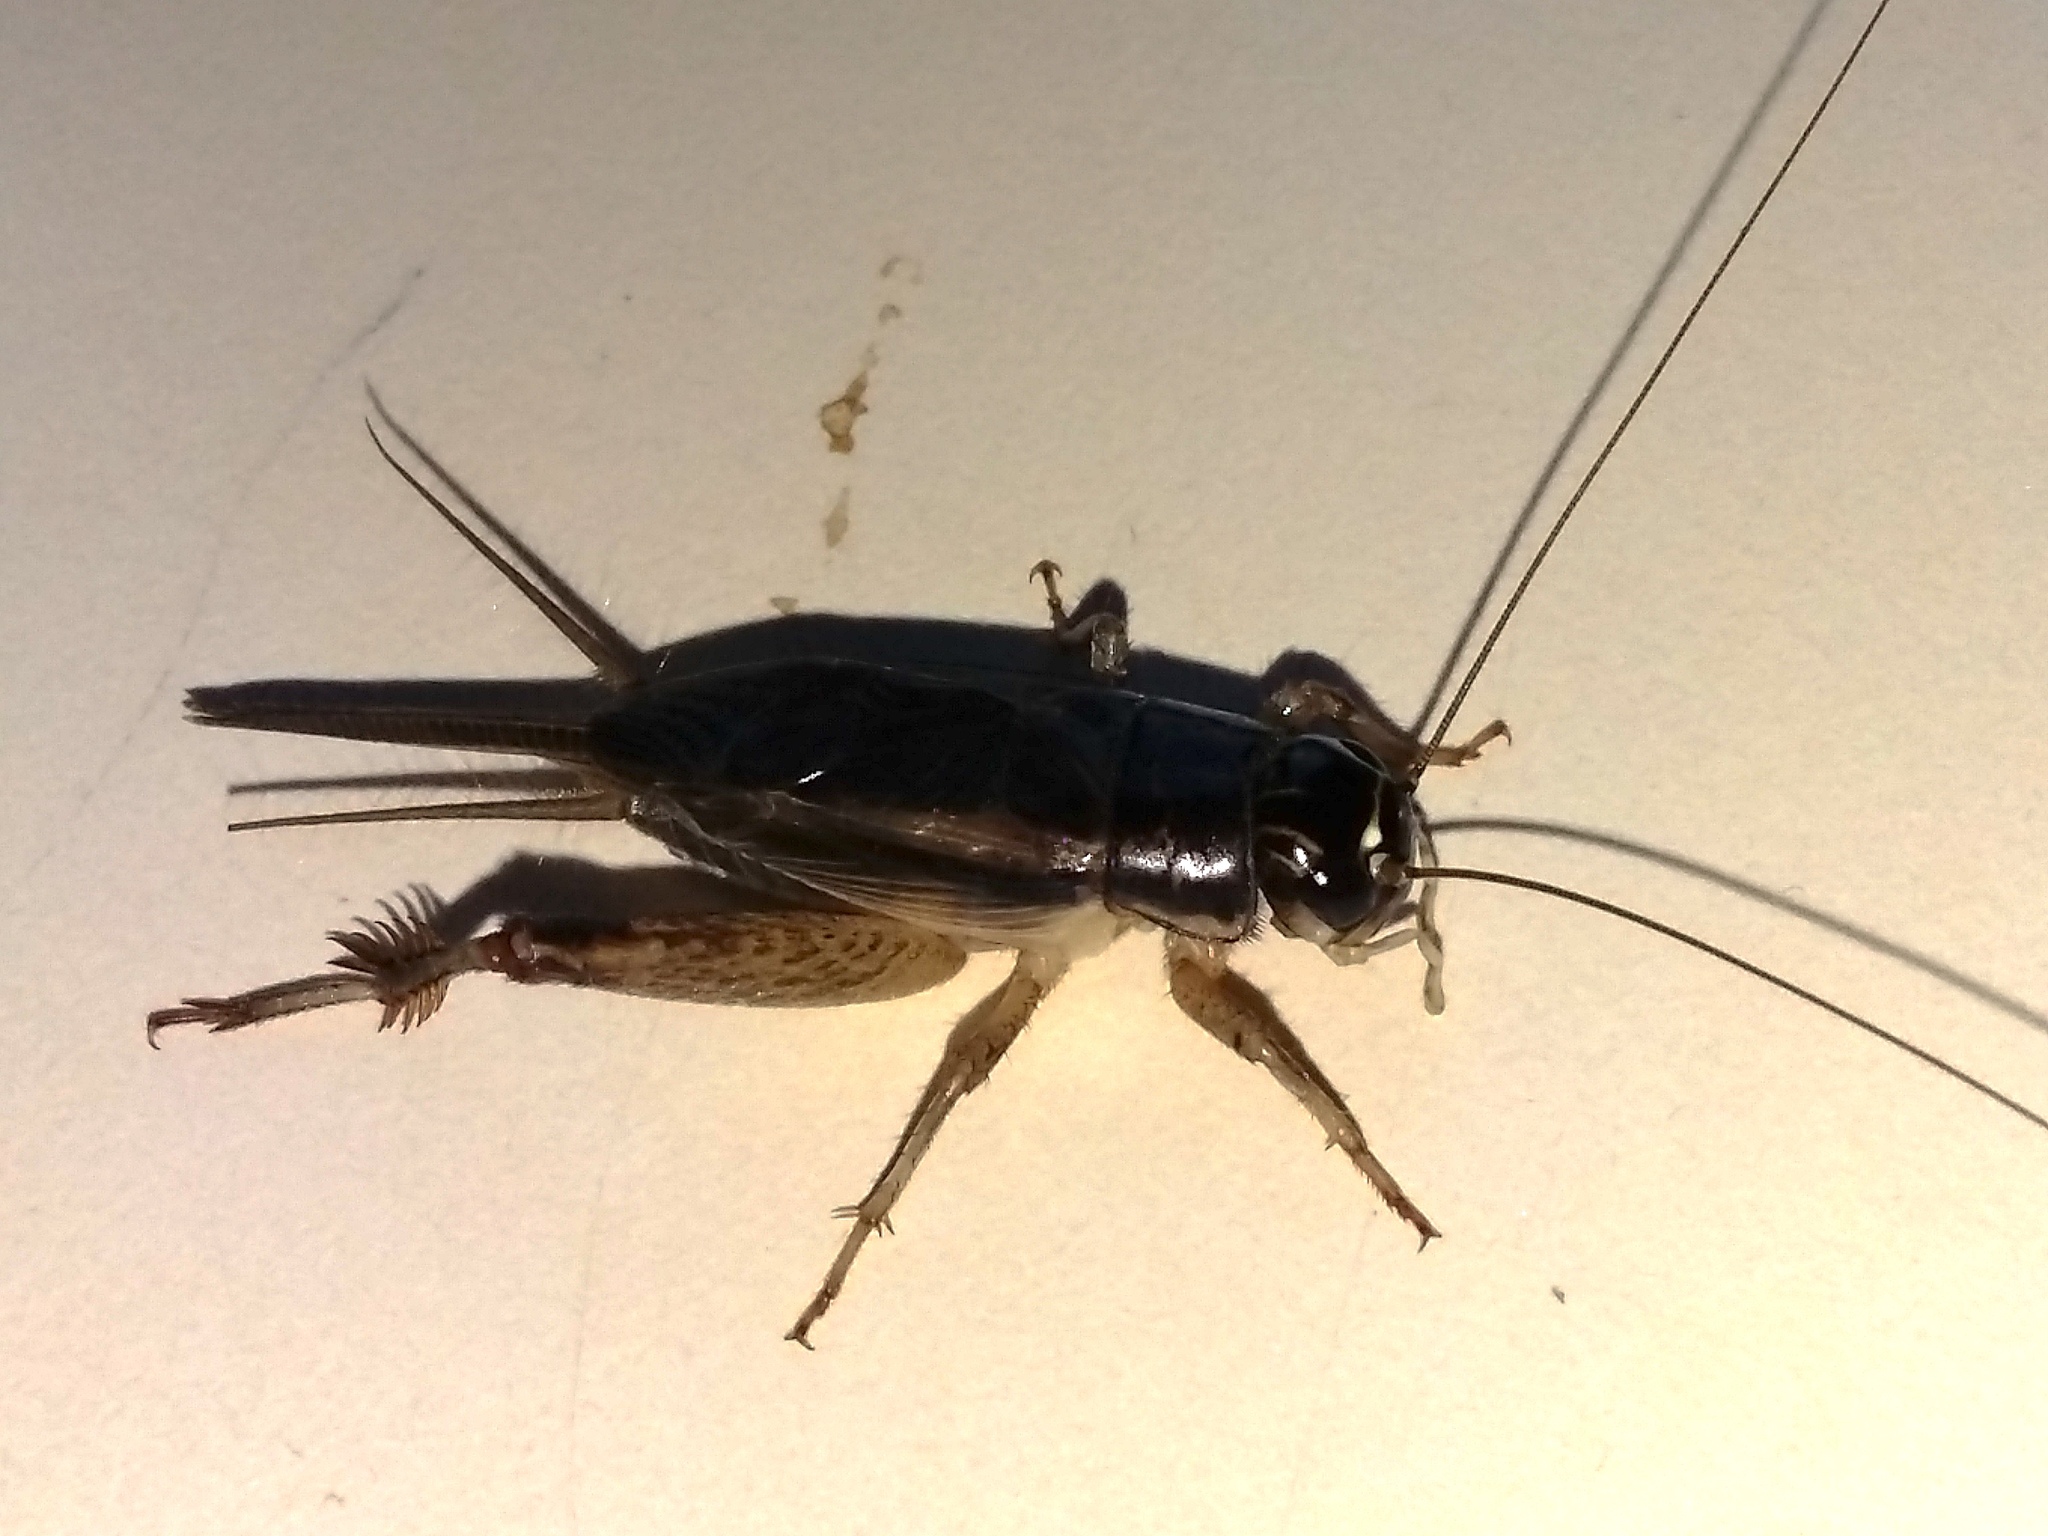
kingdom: Animalia
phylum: Arthropoda
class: Insecta
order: Orthoptera
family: Gryllidae
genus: Lepidogryllus
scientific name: Lepidogryllus comparatus
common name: Confusing field cricket
